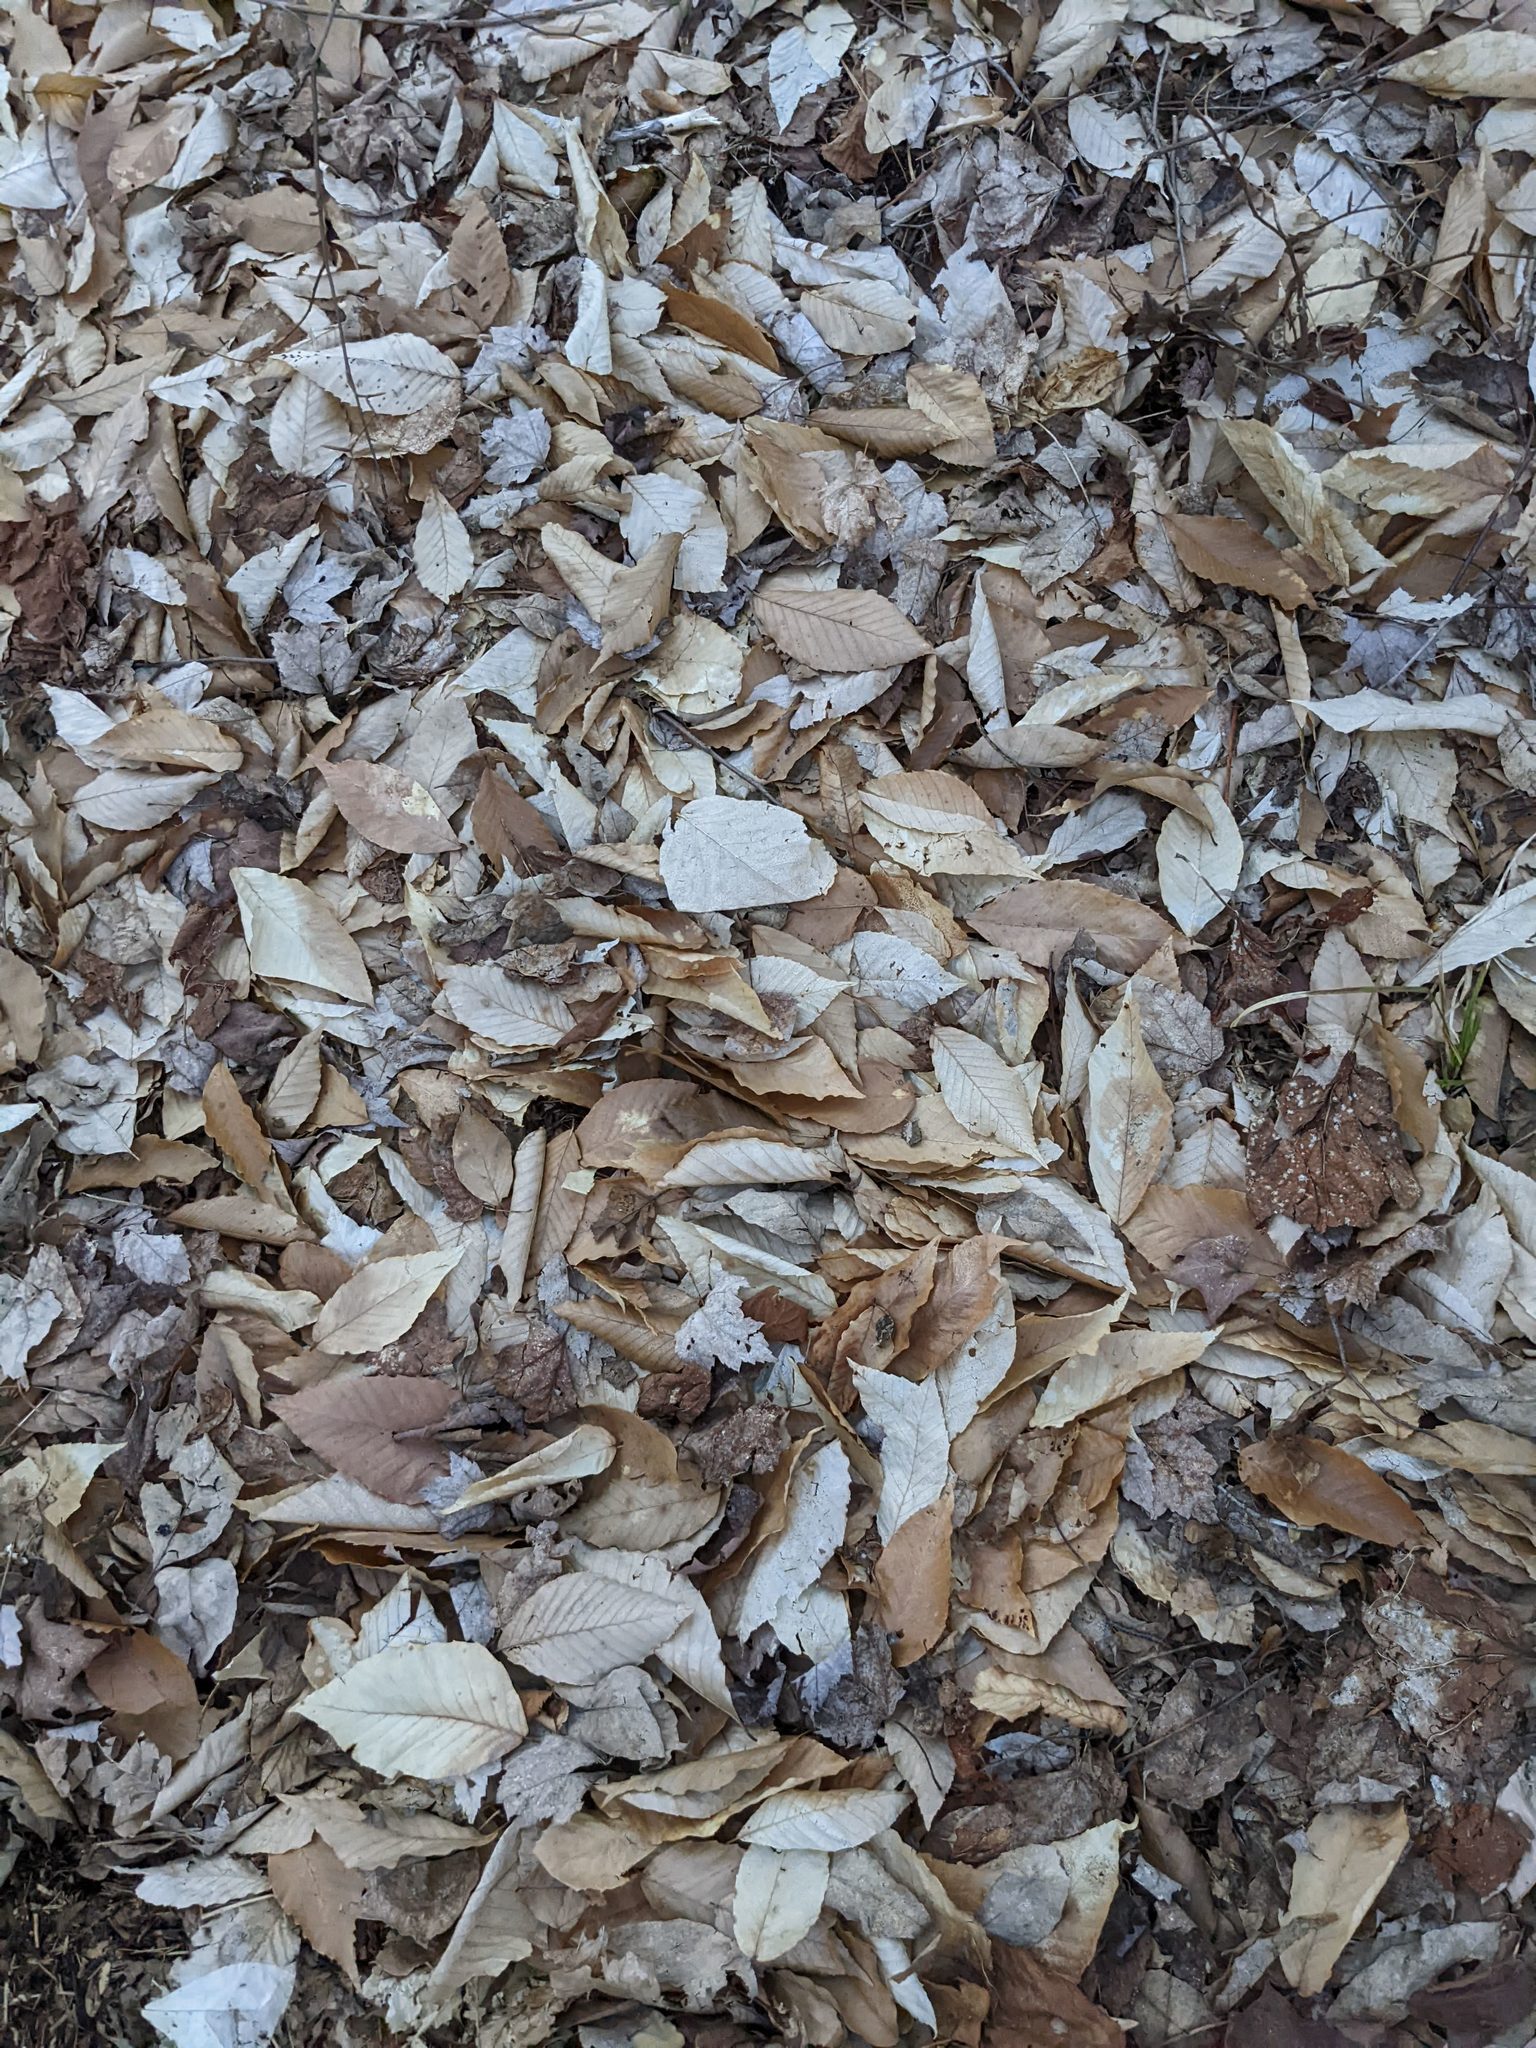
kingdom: Plantae
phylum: Tracheophyta
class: Magnoliopsida
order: Fagales
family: Fagaceae
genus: Fagus
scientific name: Fagus grandifolia
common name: American beech
